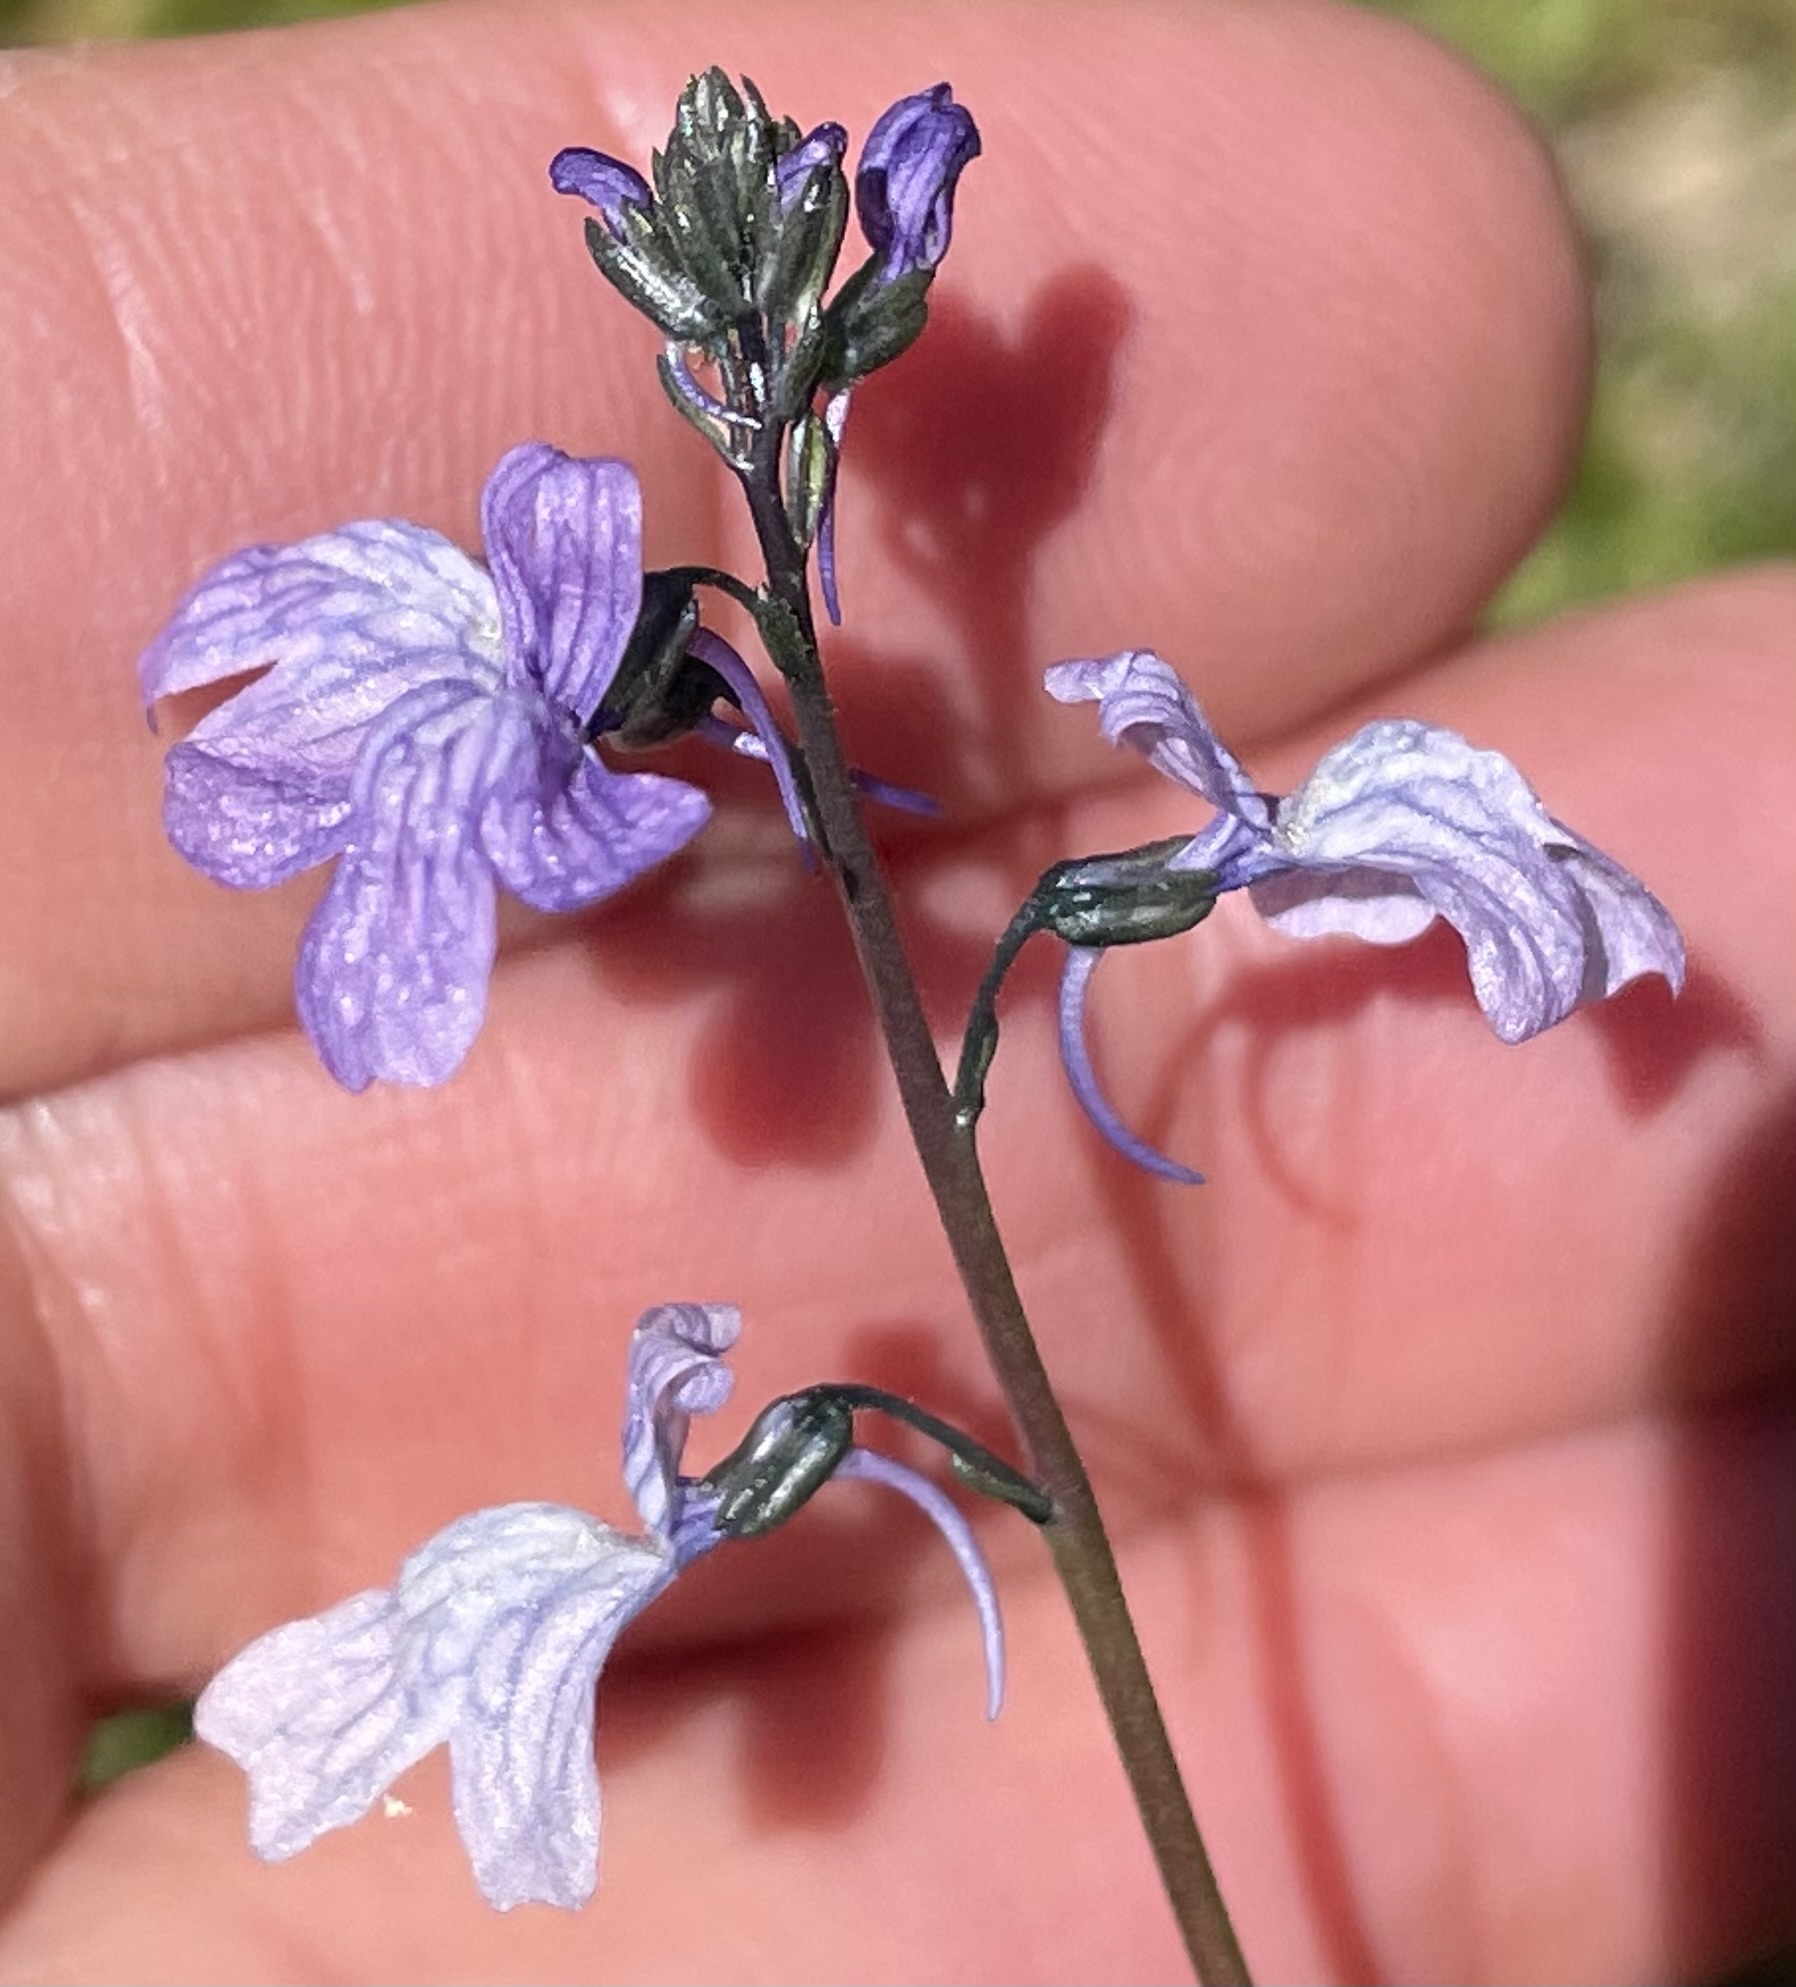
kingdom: Plantae
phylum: Tracheophyta
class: Magnoliopsida
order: Lamiales
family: Plantaginaceae
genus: Nuttallanthus
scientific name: Nuttallanthus texanus
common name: Texas toadflax
